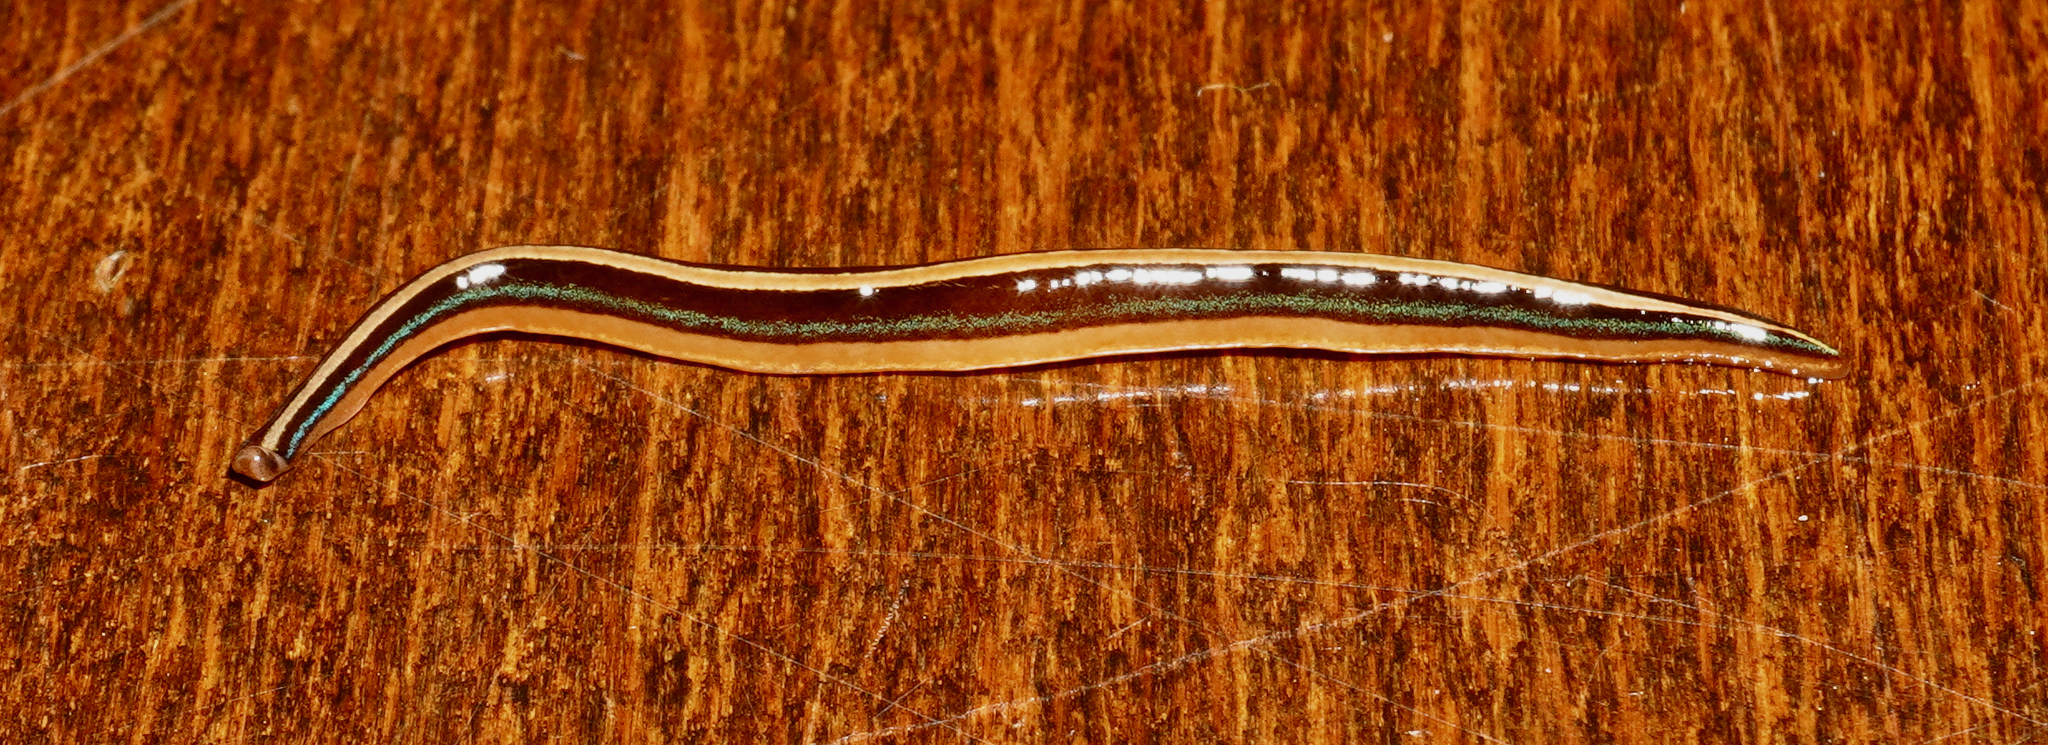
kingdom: Animalia
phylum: Platyhelminthes
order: Tricladida
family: Geoplanidae
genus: Newzealandia
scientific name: Newzealandia iris
